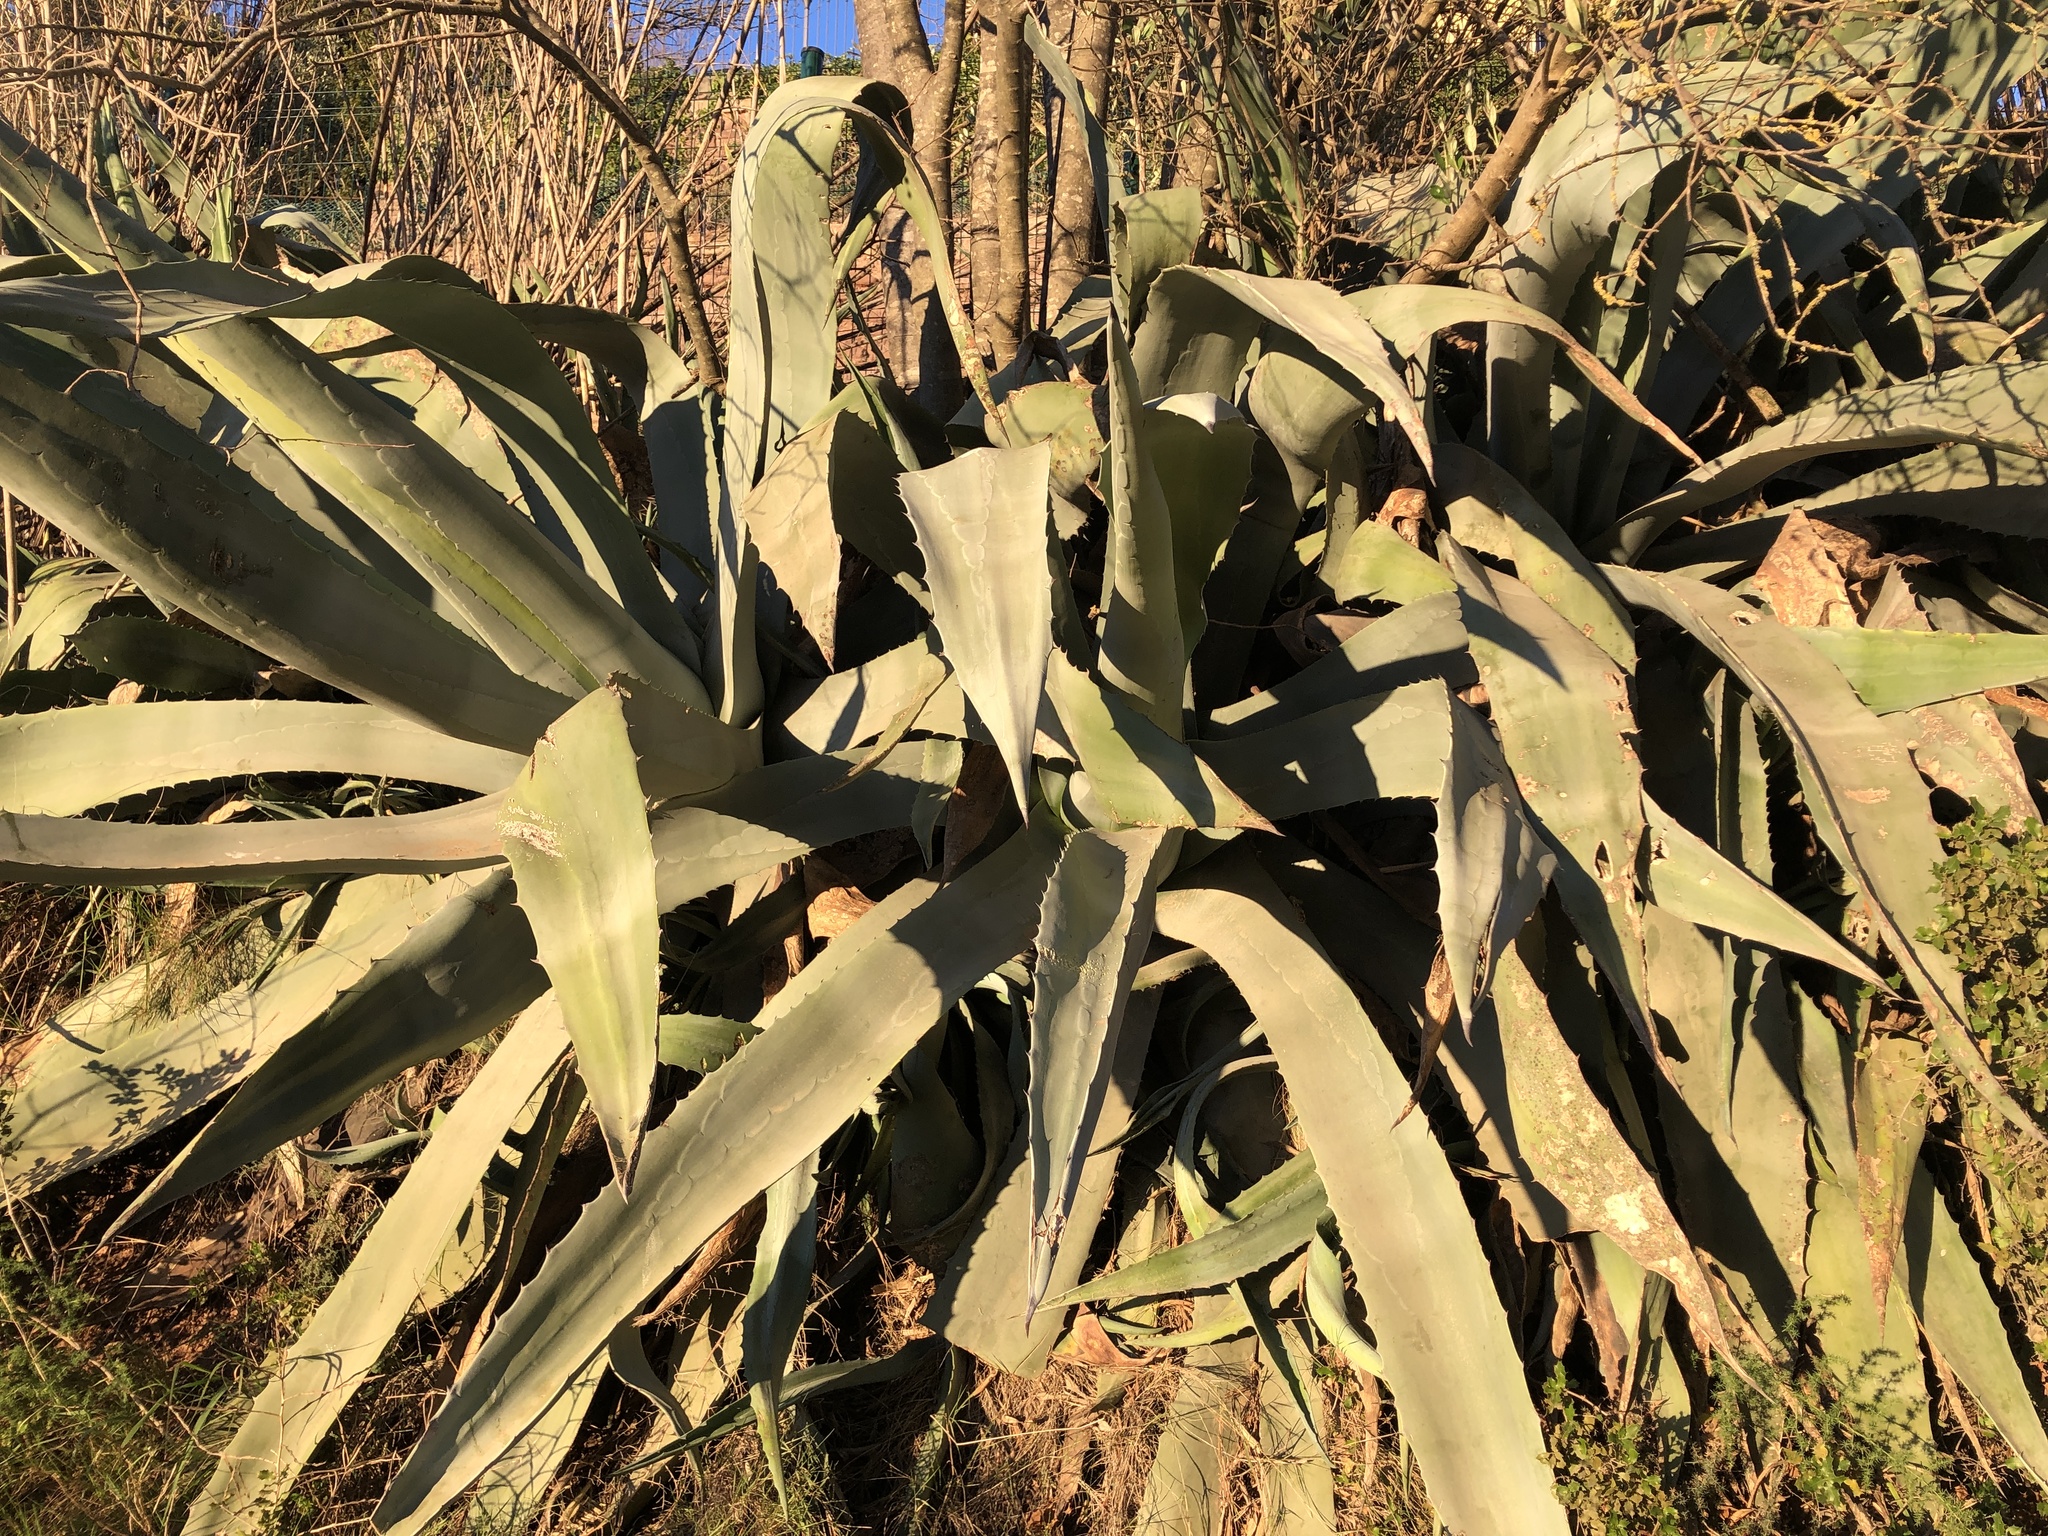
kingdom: Plantae
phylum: Tracheophyta
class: Liliopsida
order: Asparagales
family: Asparagaceae
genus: Agave
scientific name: Agave americana
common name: Centuryplant
